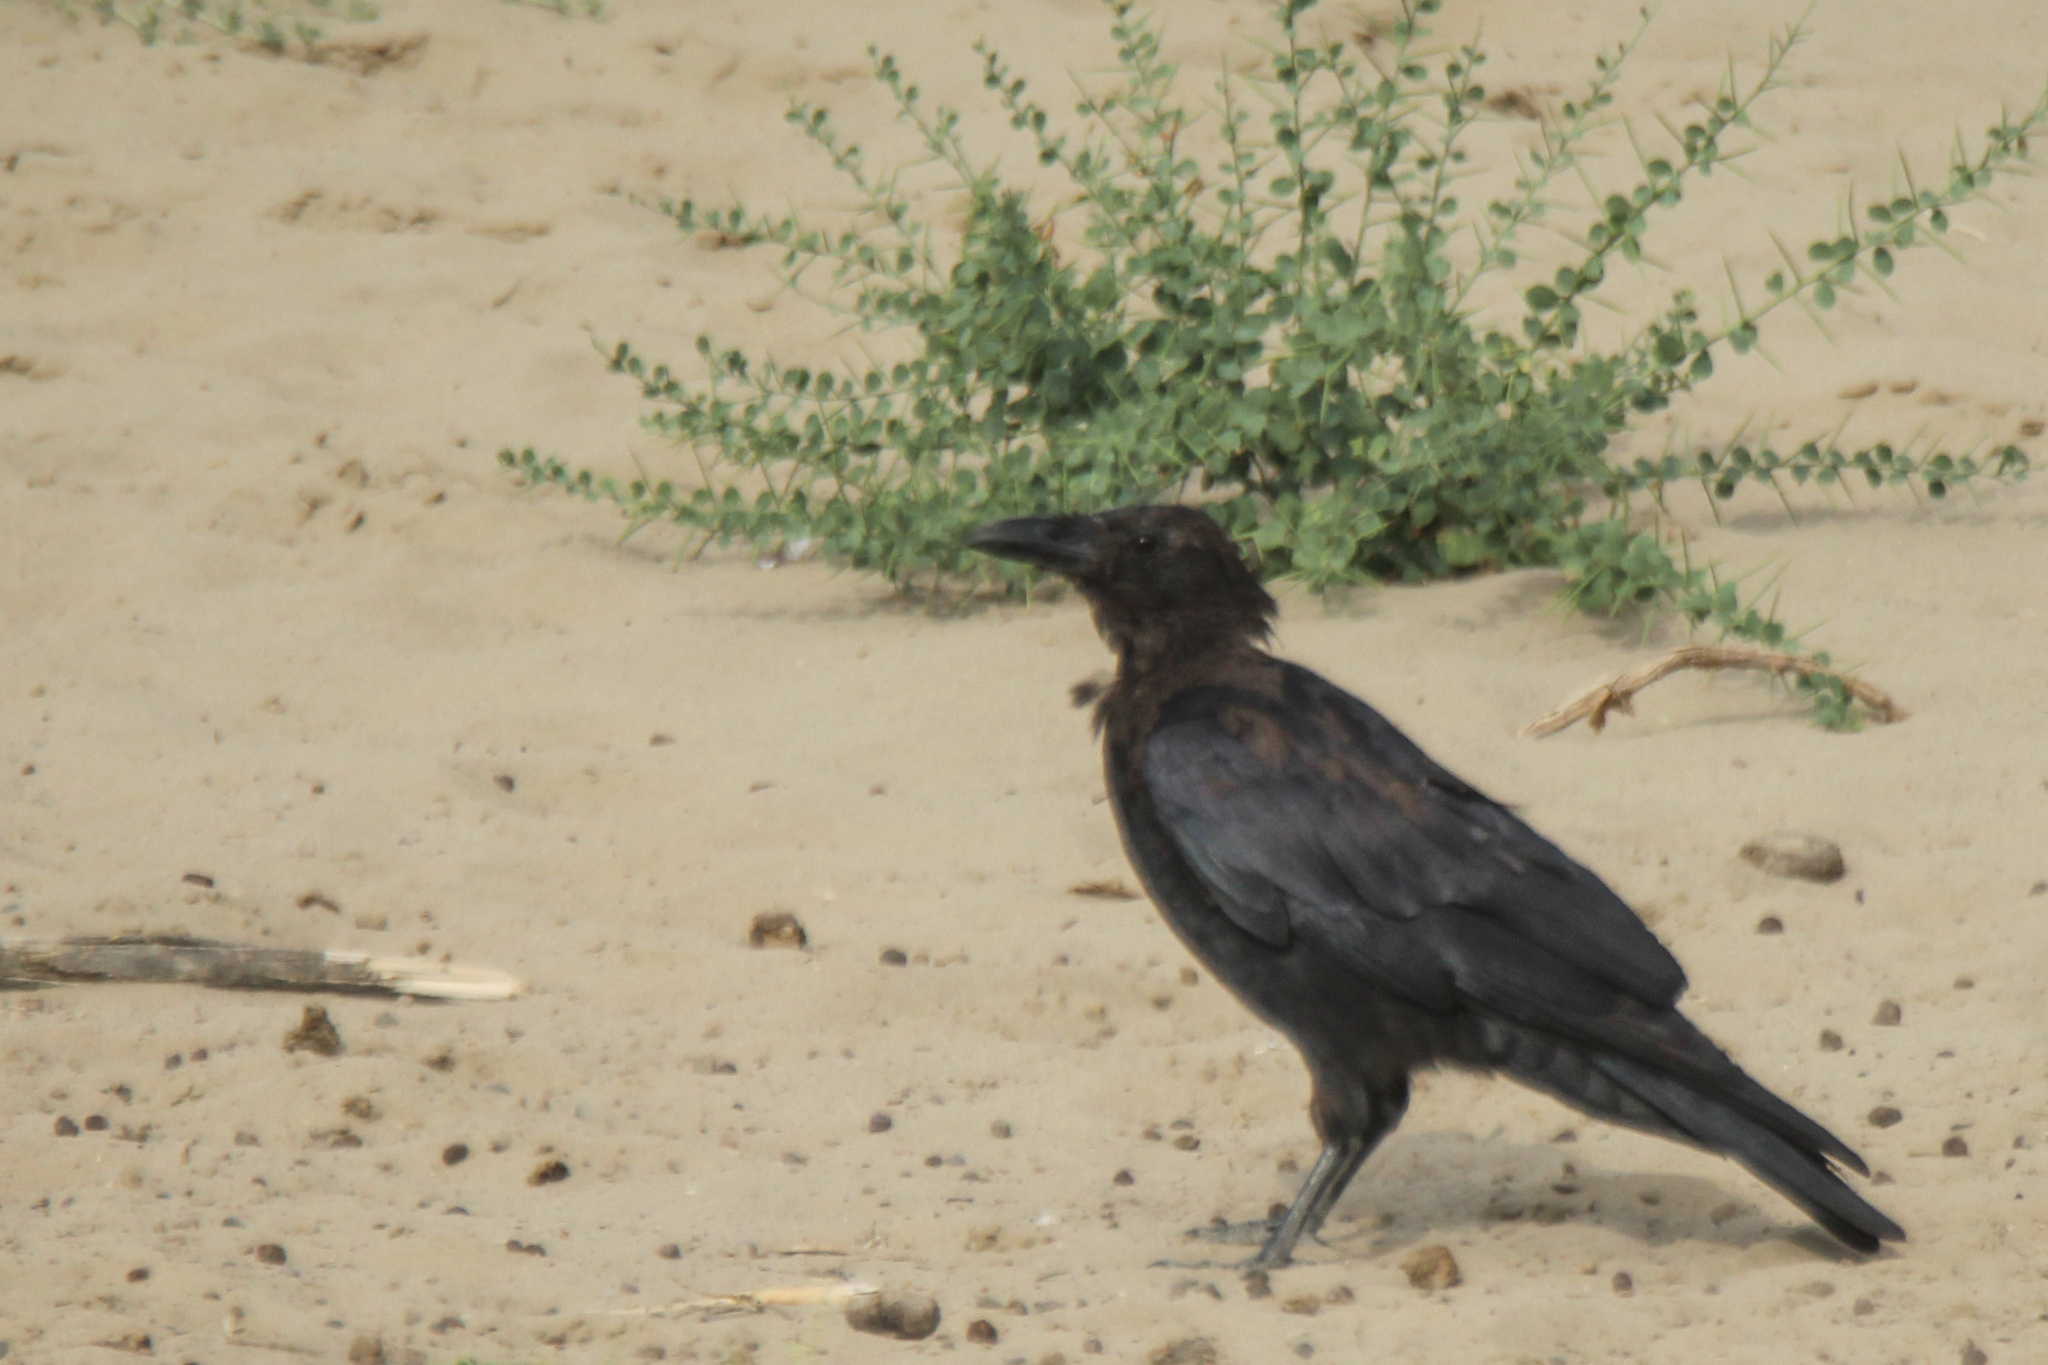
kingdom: Animalia
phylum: Chordata
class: Aves
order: Passeriformes
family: Corvidae
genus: Corvus
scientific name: Corvus corone
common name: Carrion crow
